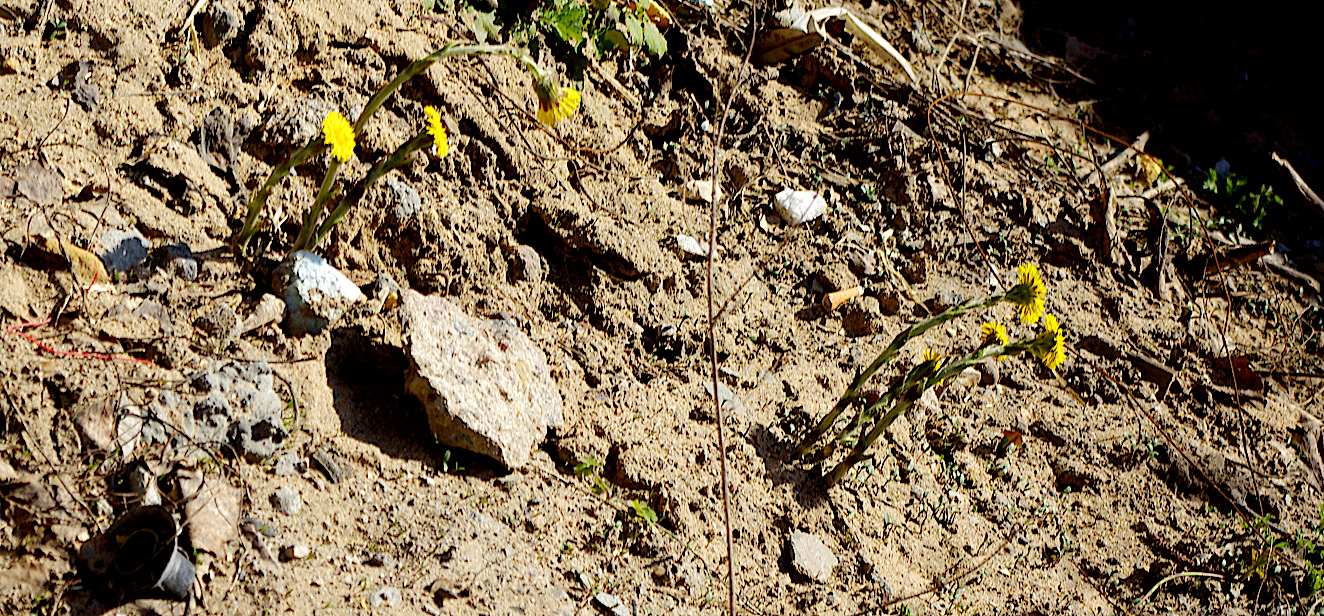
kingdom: Plantae
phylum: Tracheophyta
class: Magnoliopsida
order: Asterales
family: Asteraceae
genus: Tussilago
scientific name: Tussilago farfara
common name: Coltsfoot
